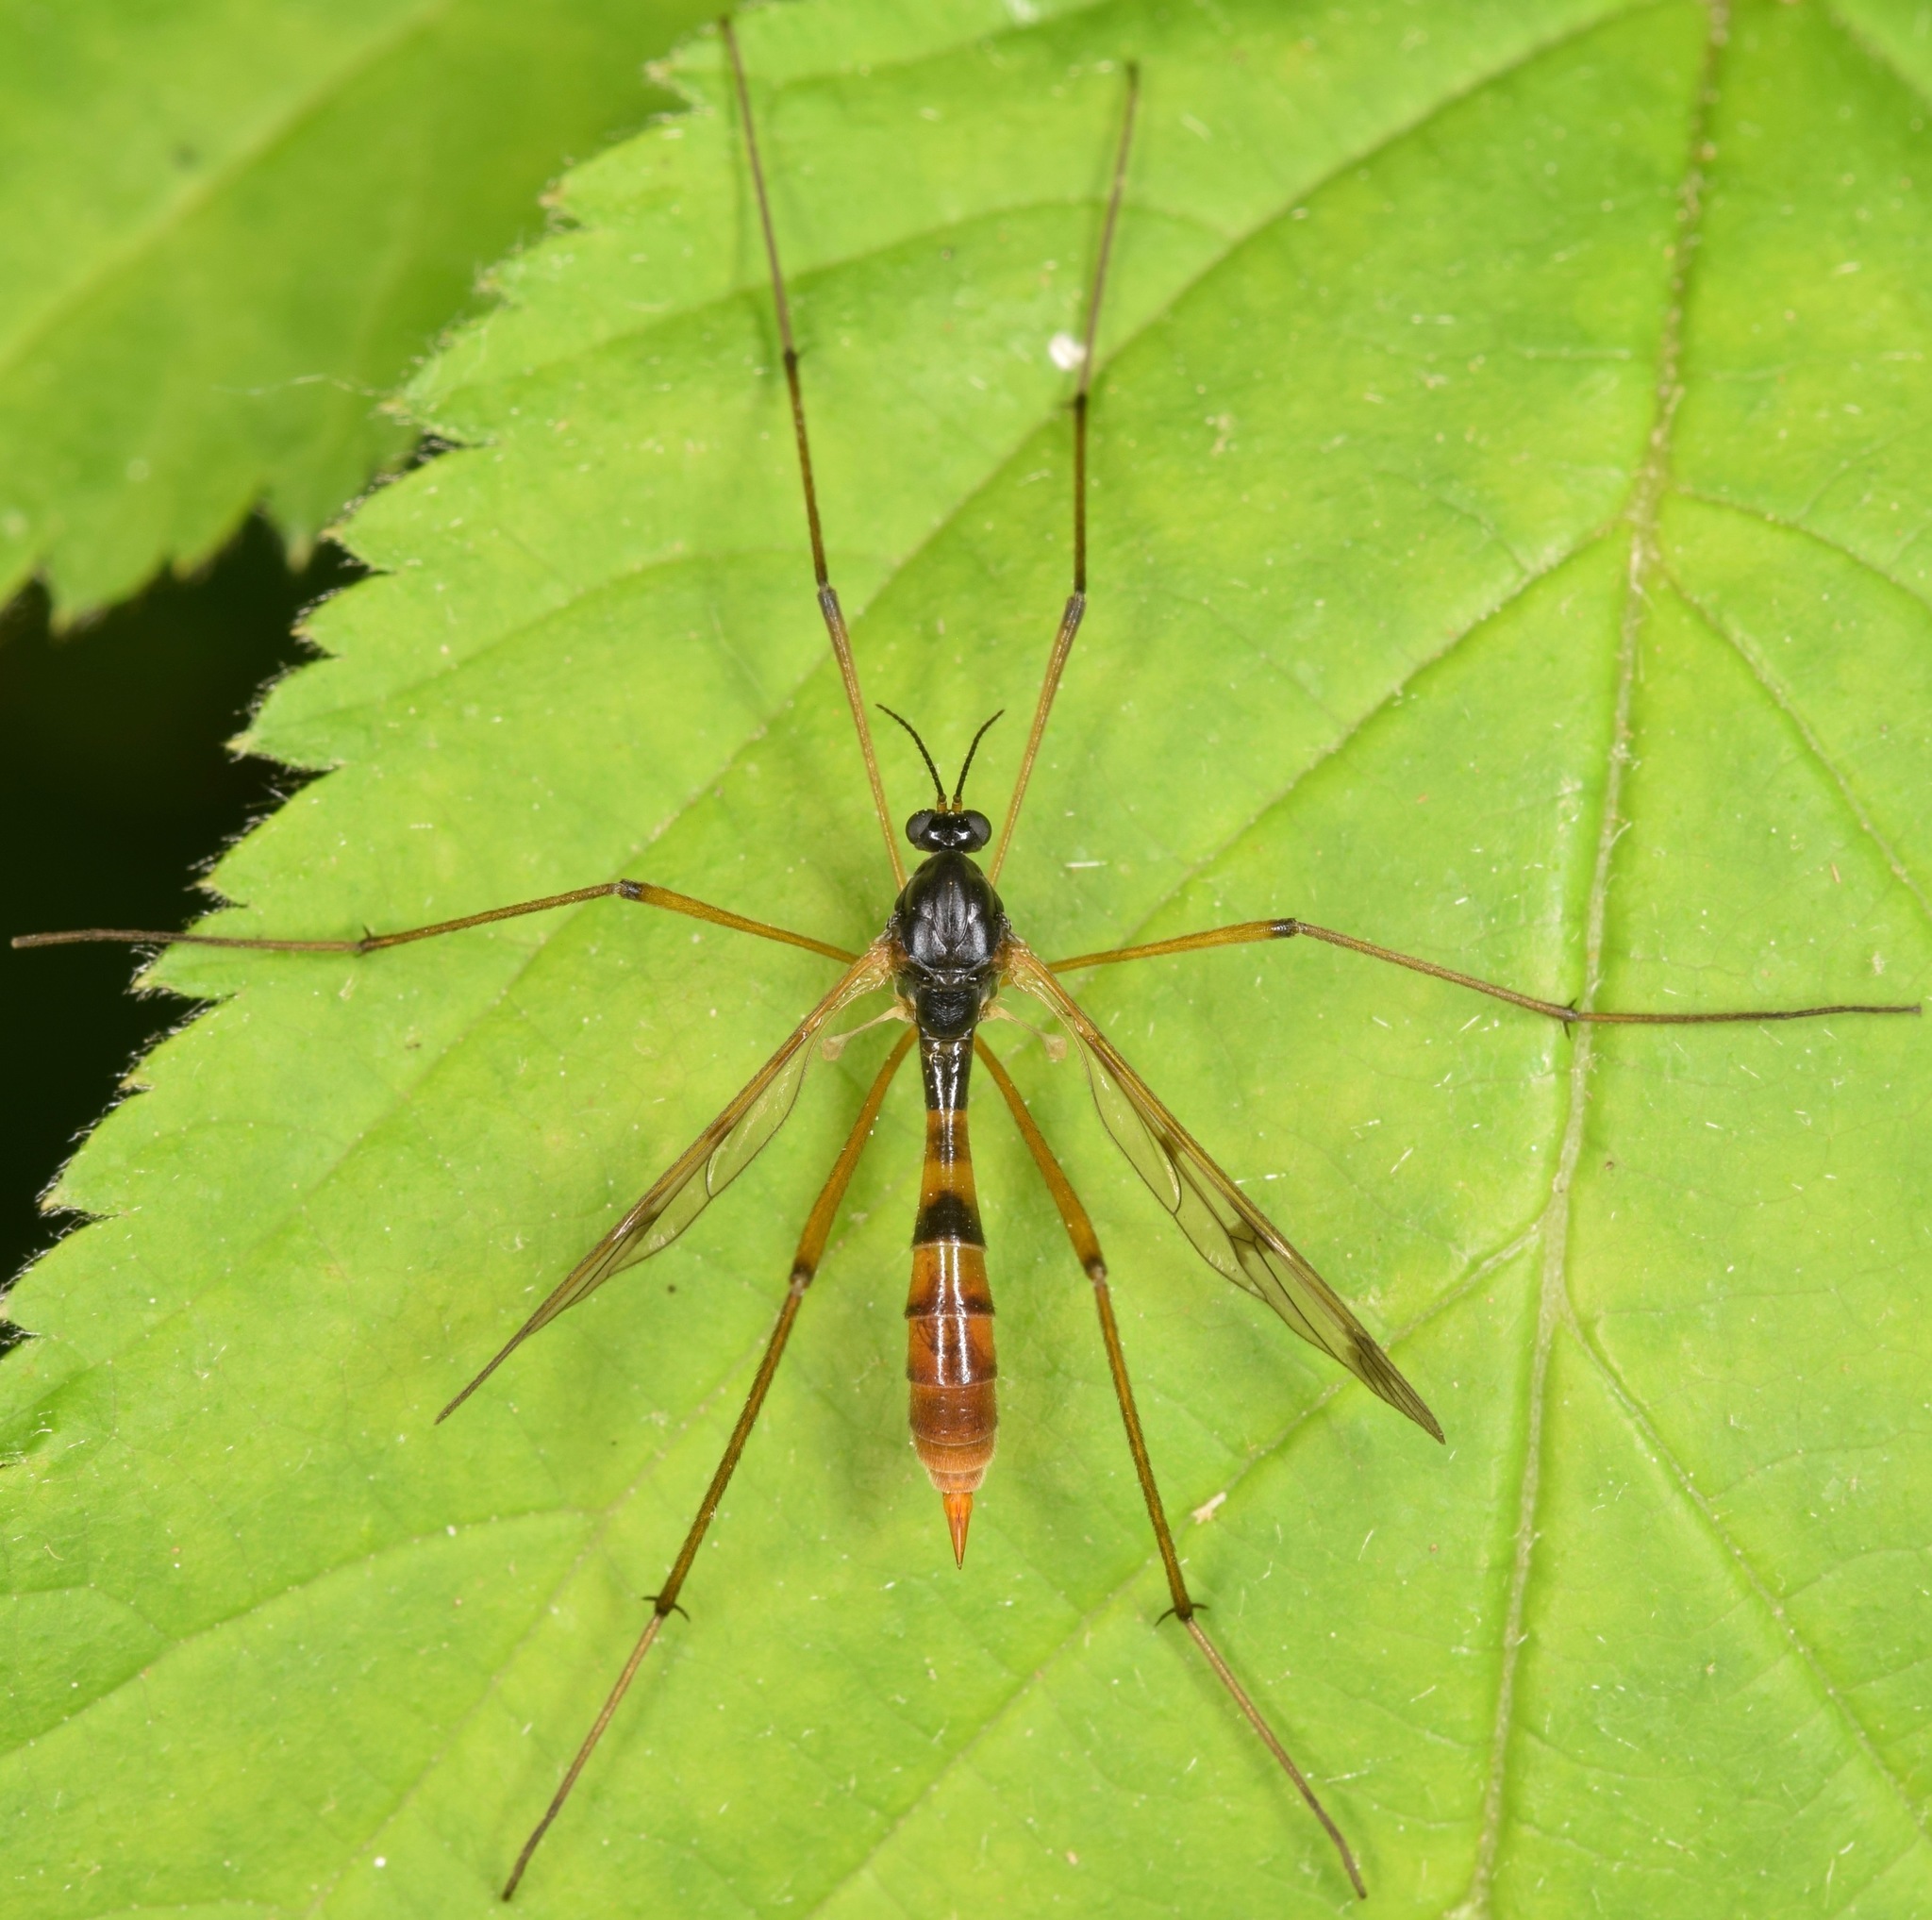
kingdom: Animalia
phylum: Arthropoda
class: Insecta
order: Diptera
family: Ptychopteridae
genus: Ptychoptera
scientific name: Ptychoptera
